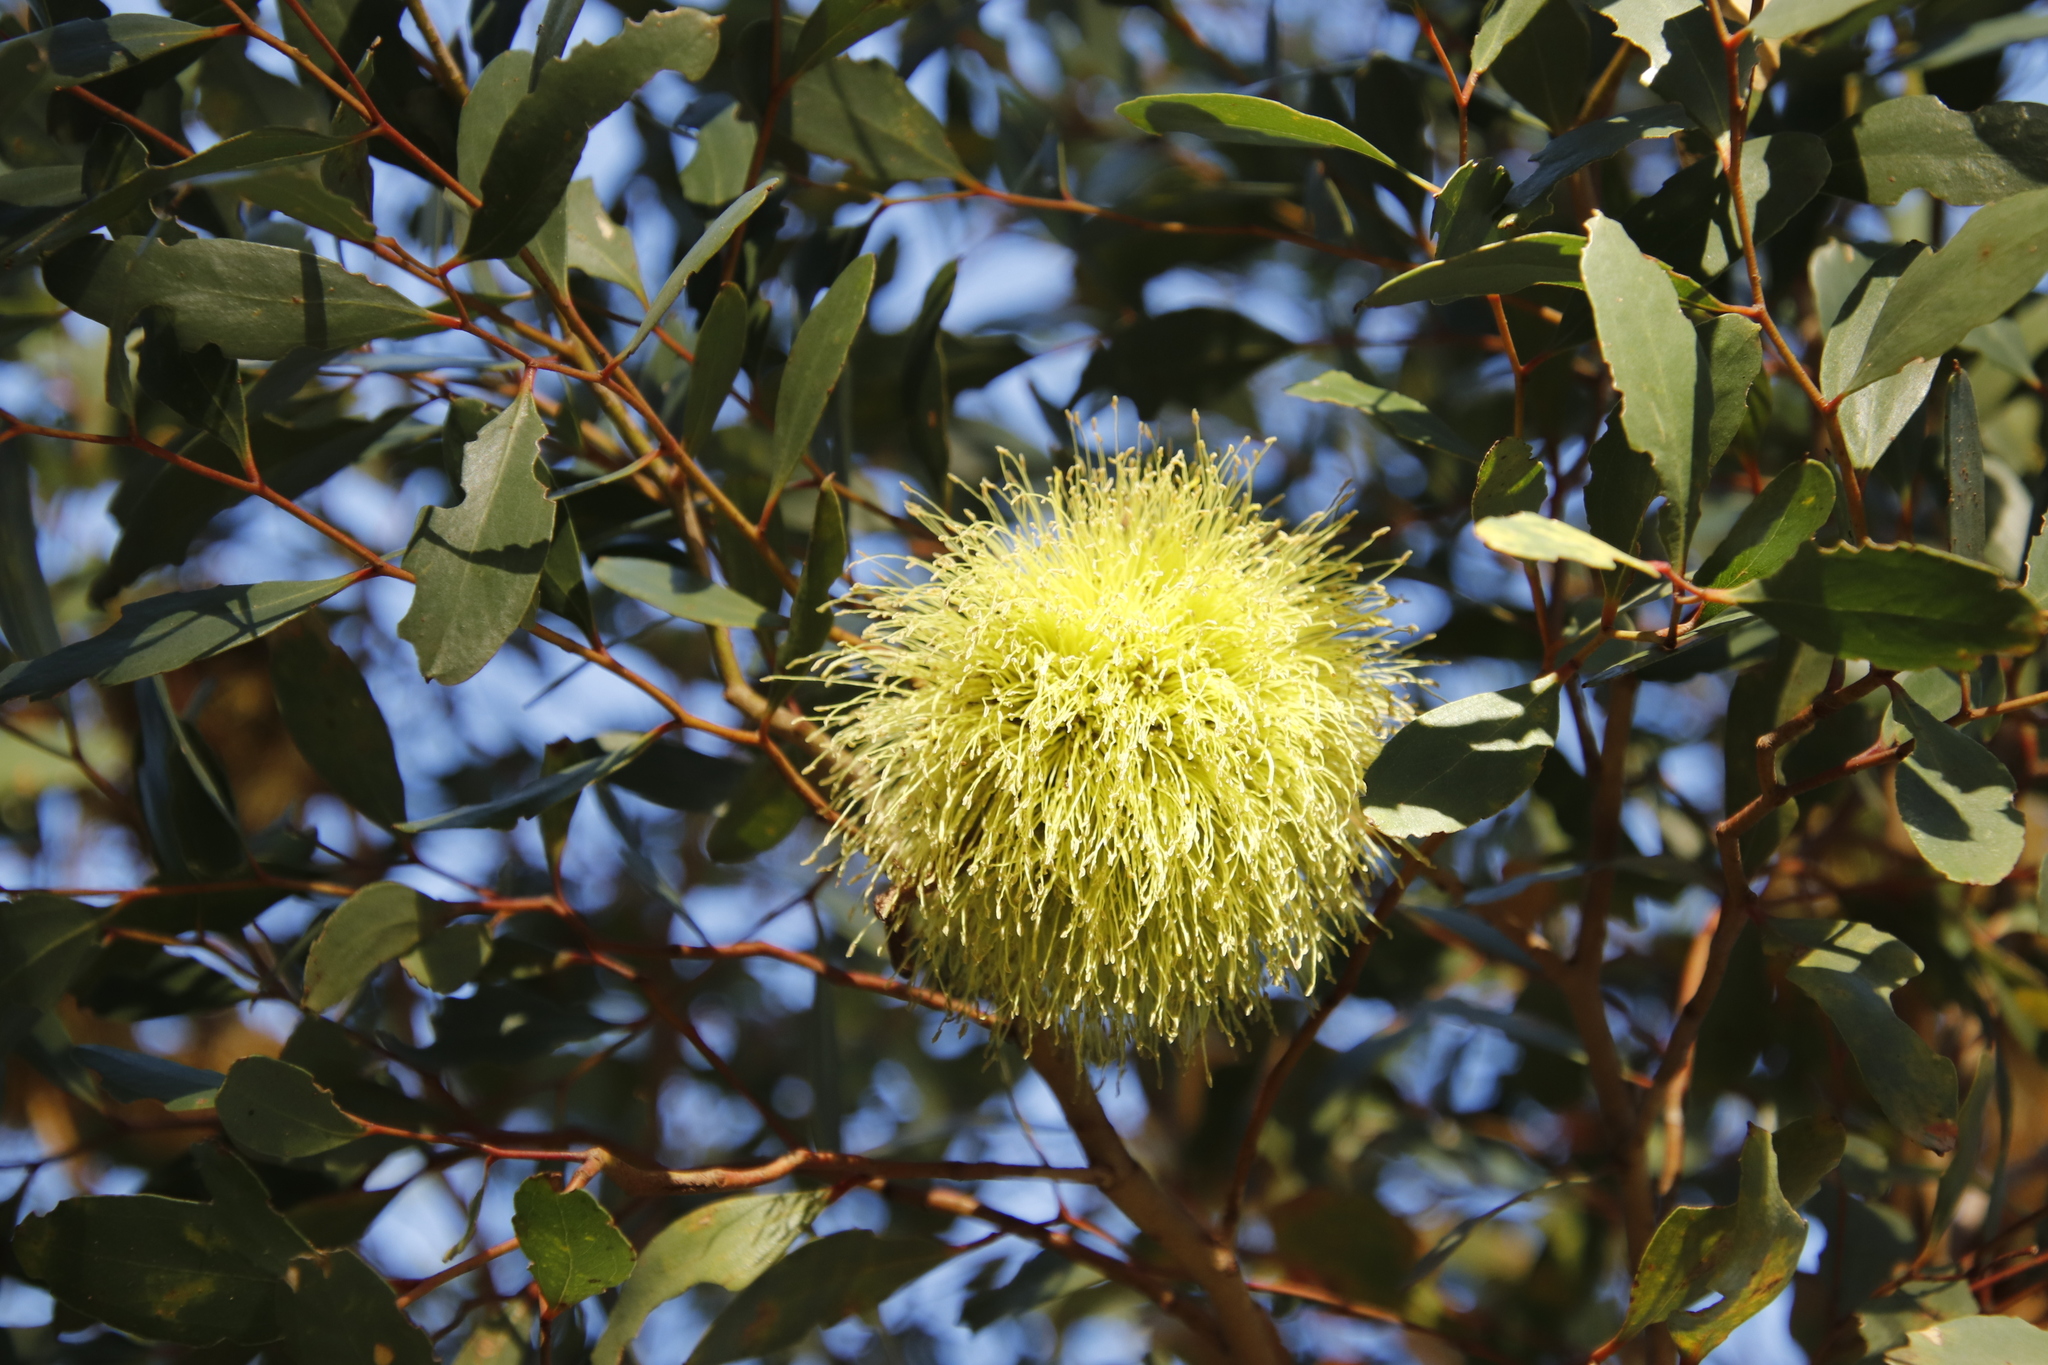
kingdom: Plantae
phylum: Tracheophyta
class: Magnoliopsida
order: Myrtales
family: Myrtaceae
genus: Eucalyptus
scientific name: Eucalyptus conferruminata
